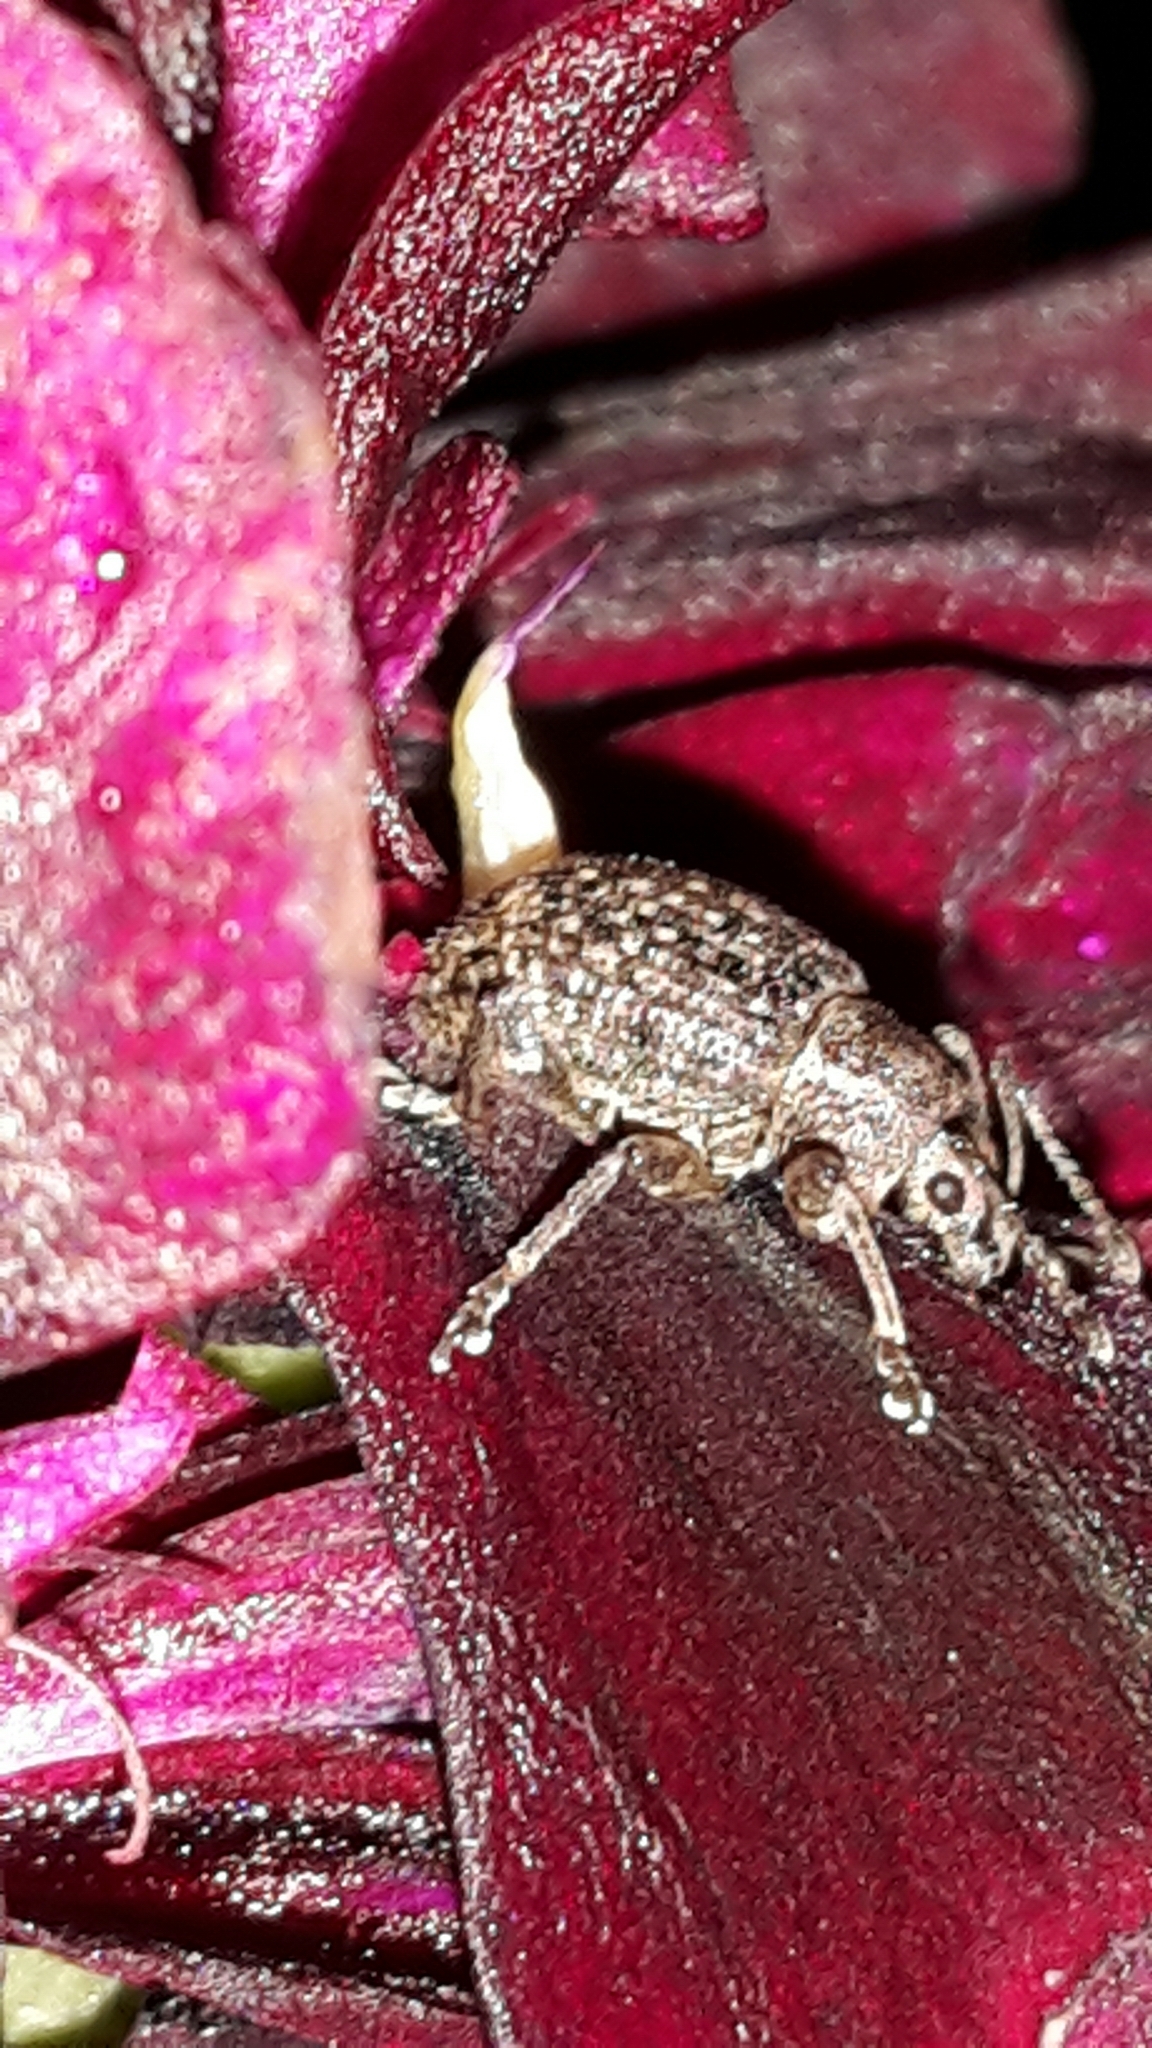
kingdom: Animalia
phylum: Arthropoda
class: Insecta
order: Coleoptera
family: Curculionidae
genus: Phlyctinus
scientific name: Phlyctinus callosus
